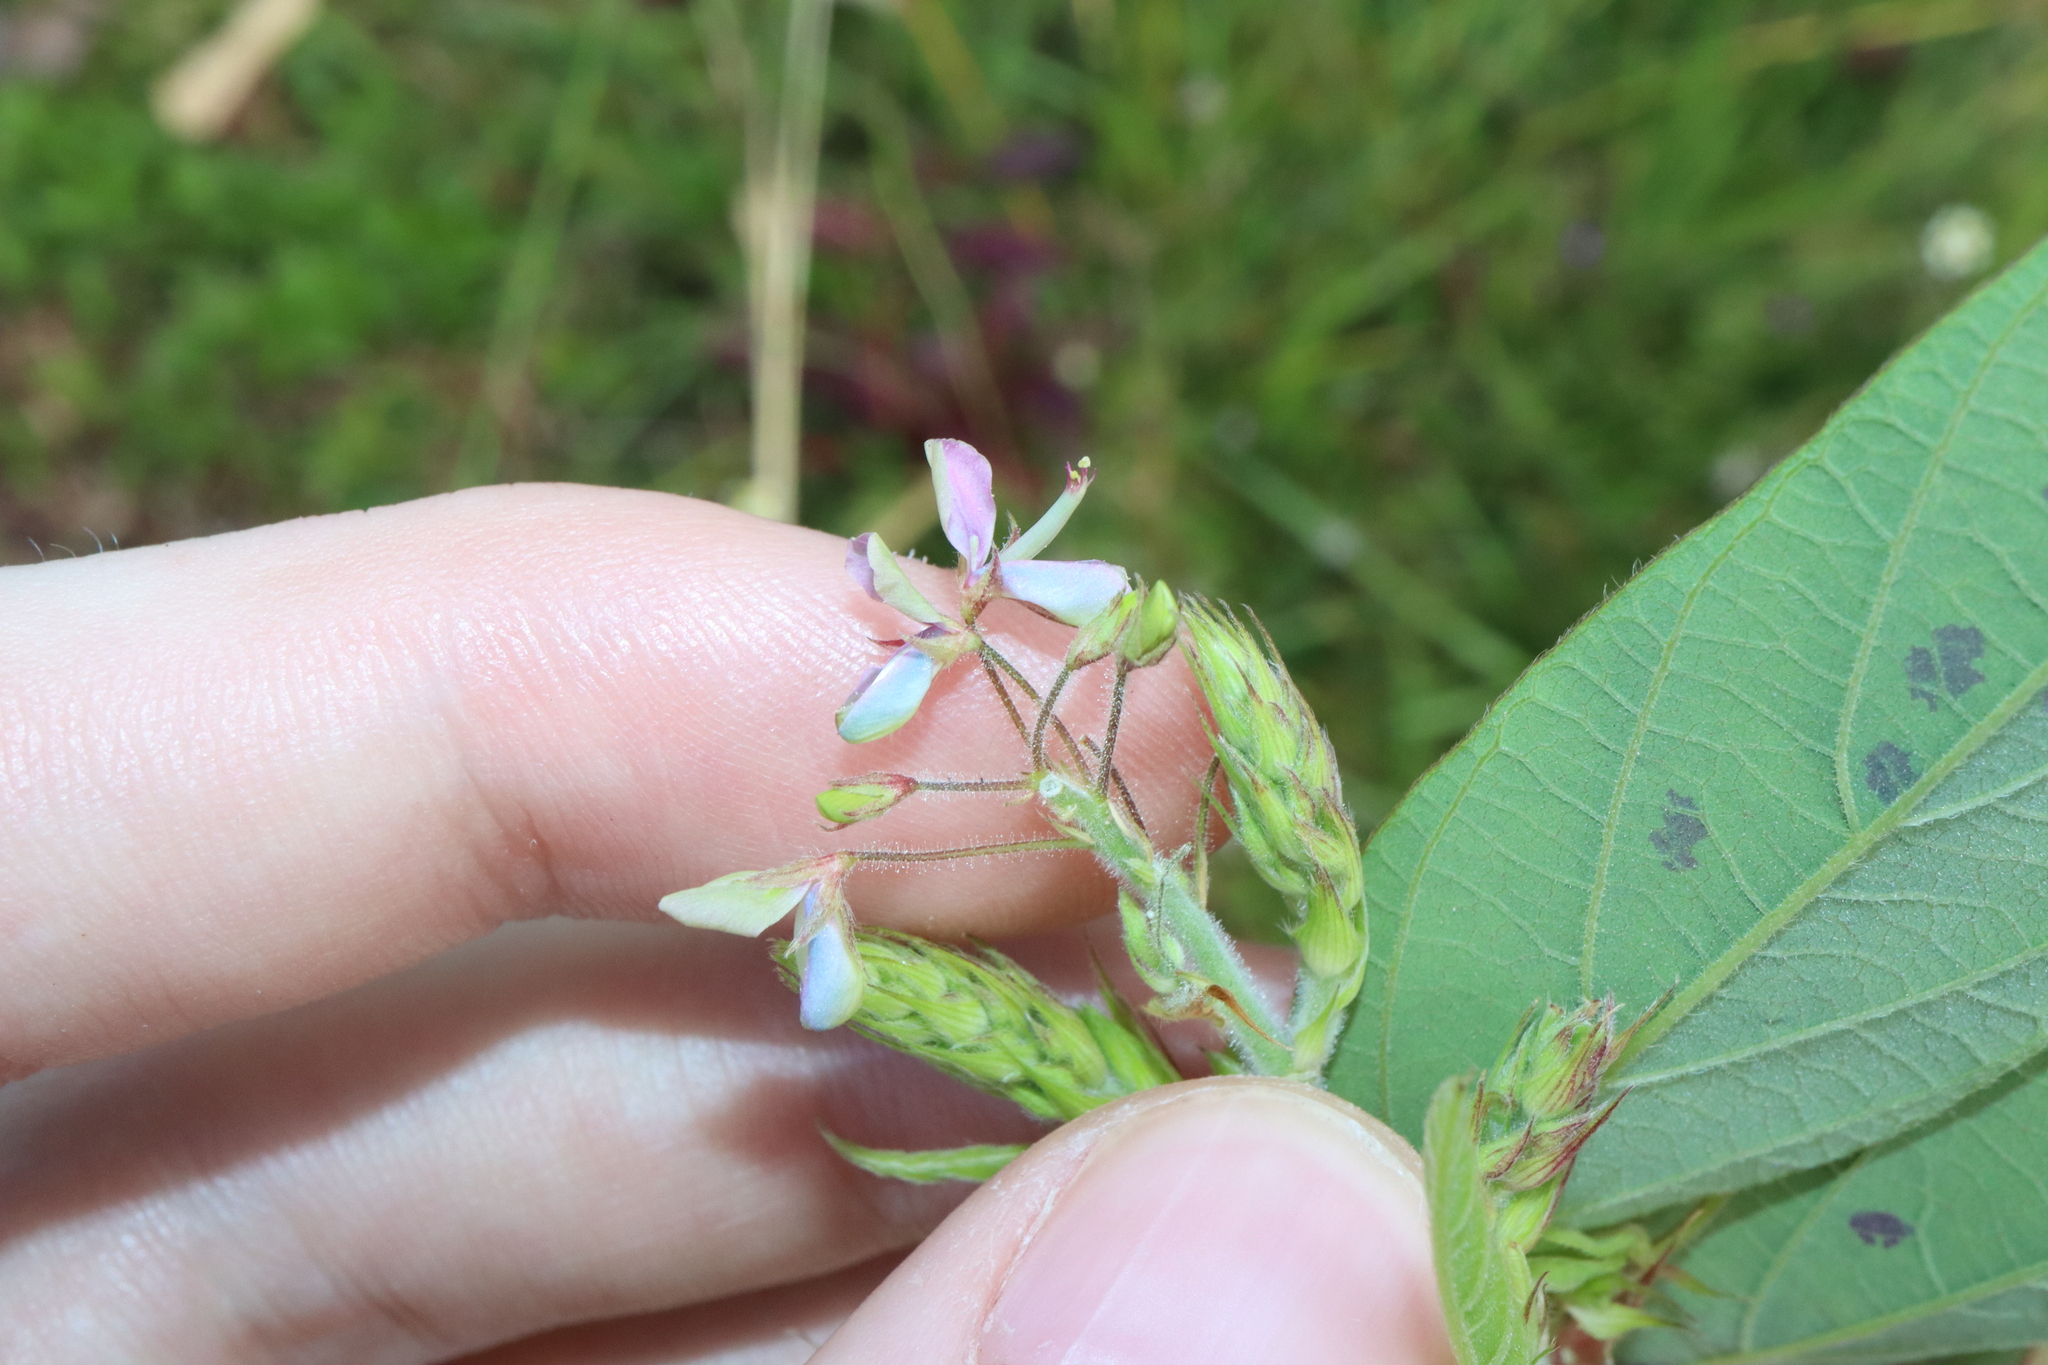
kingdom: Plantae
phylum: Tracheophyta
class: Magnoliopsida
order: Fabales
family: Fabaceae
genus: Desmodium
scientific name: Desmodium tortuosum
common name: Dixie ticktrefoil
